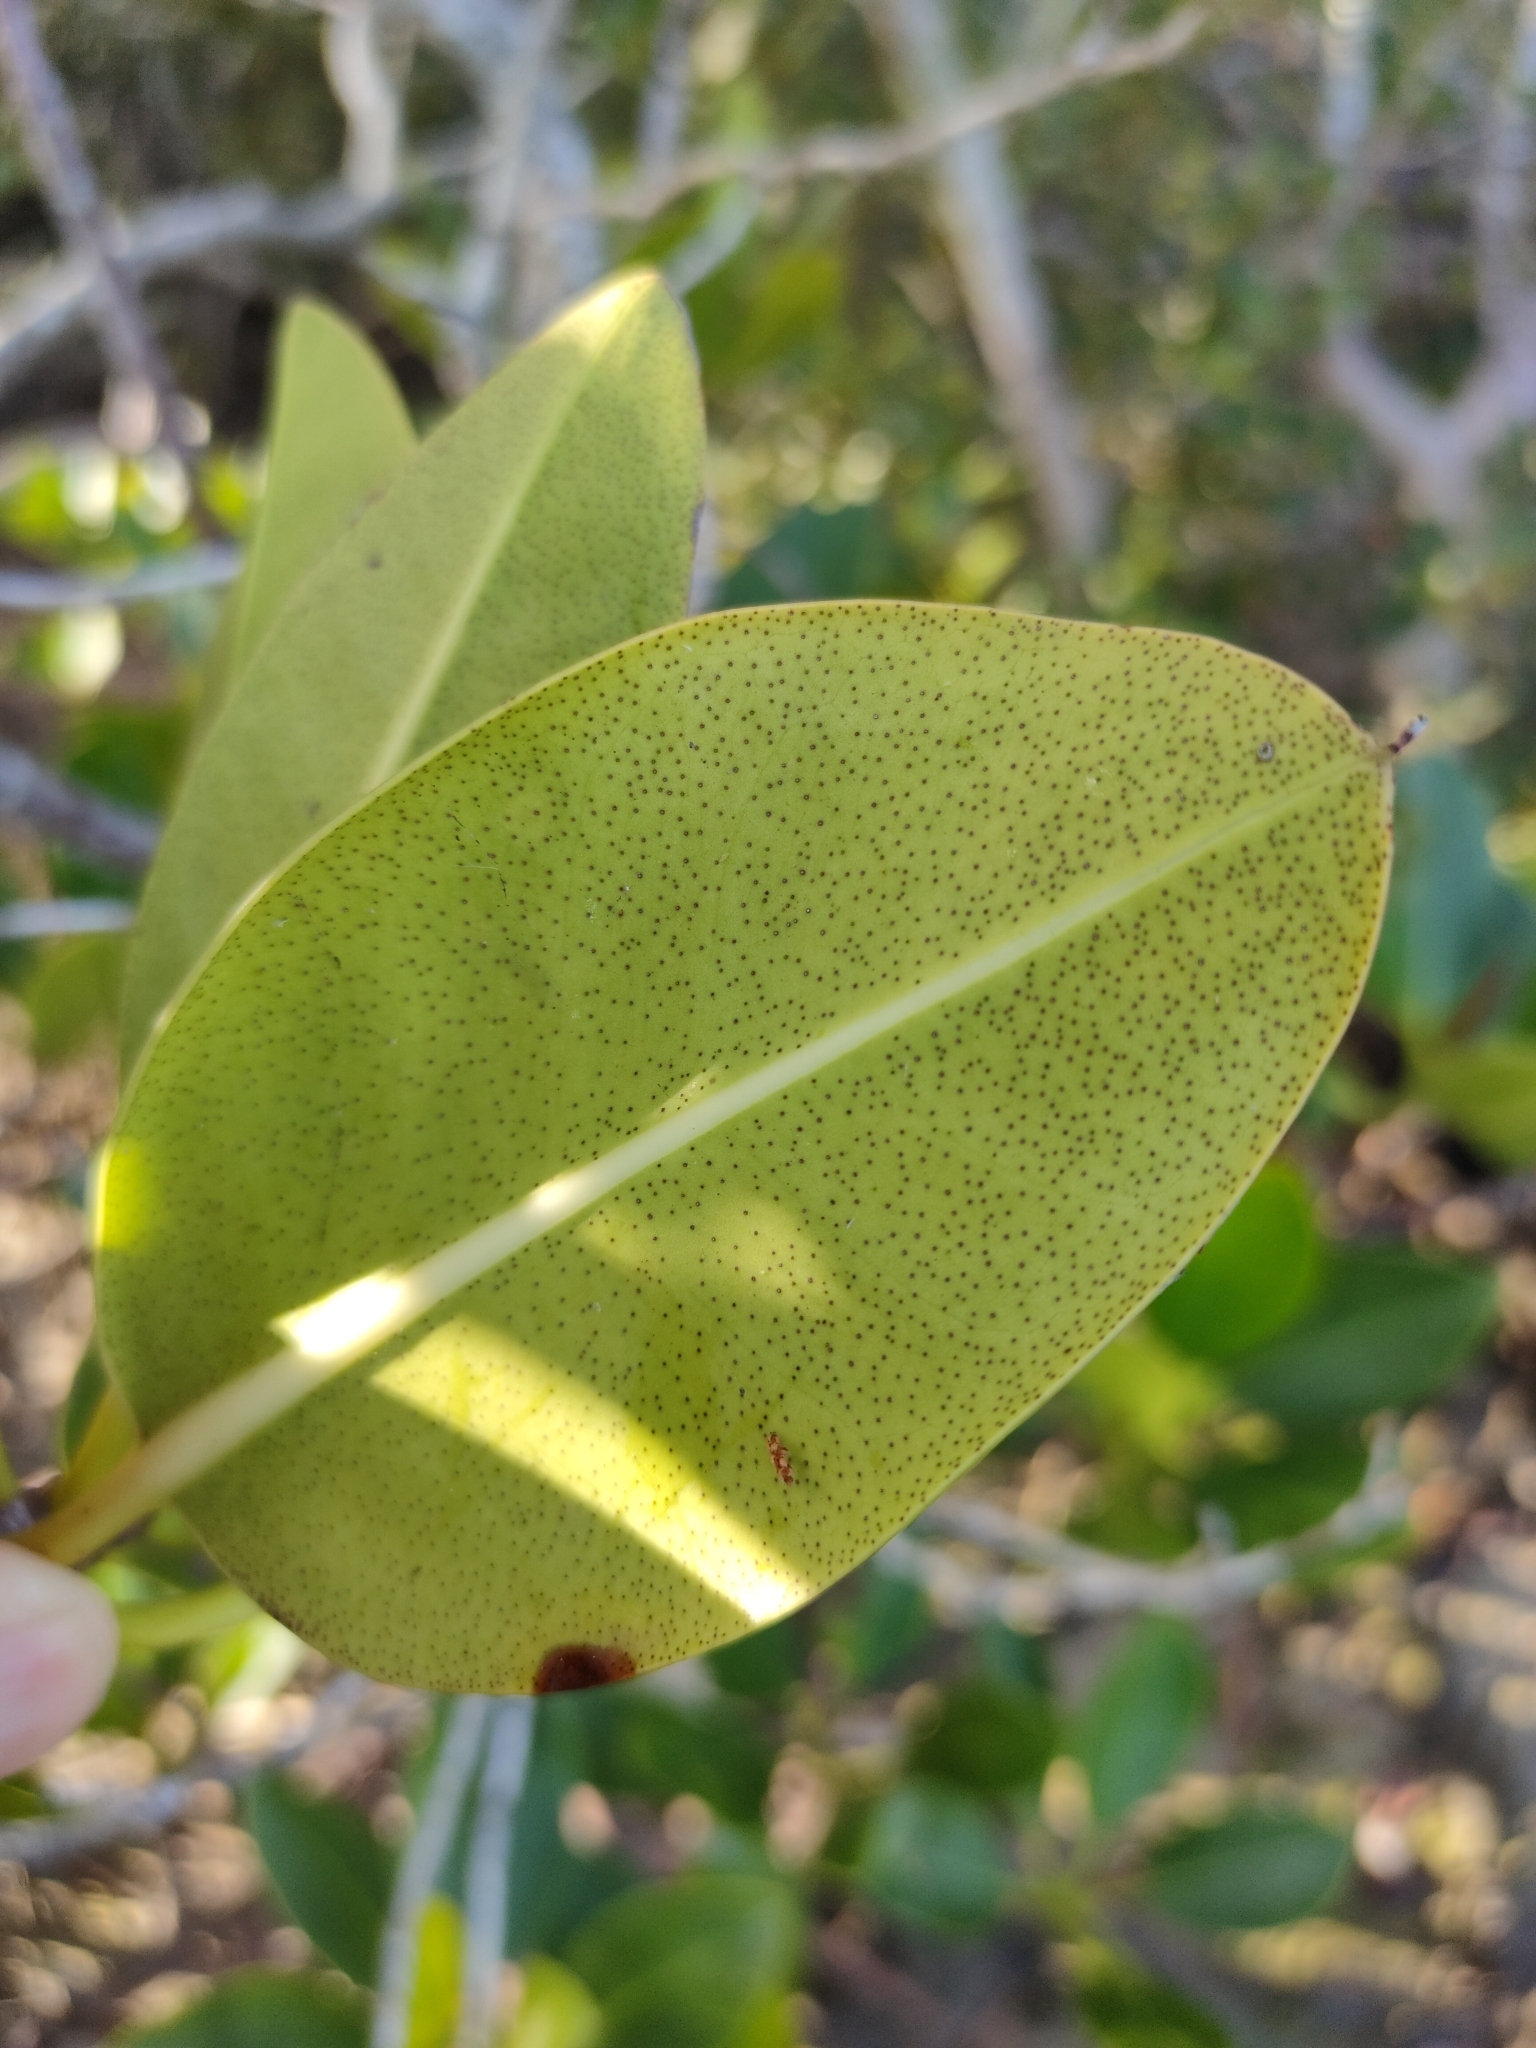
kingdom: Plantae
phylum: Tracheophyta
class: Magnoliopsida
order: Malpighiales
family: Rhizophoraceae
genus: Rhizophora
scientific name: Rhizophora stylosa
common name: Red mangrove
